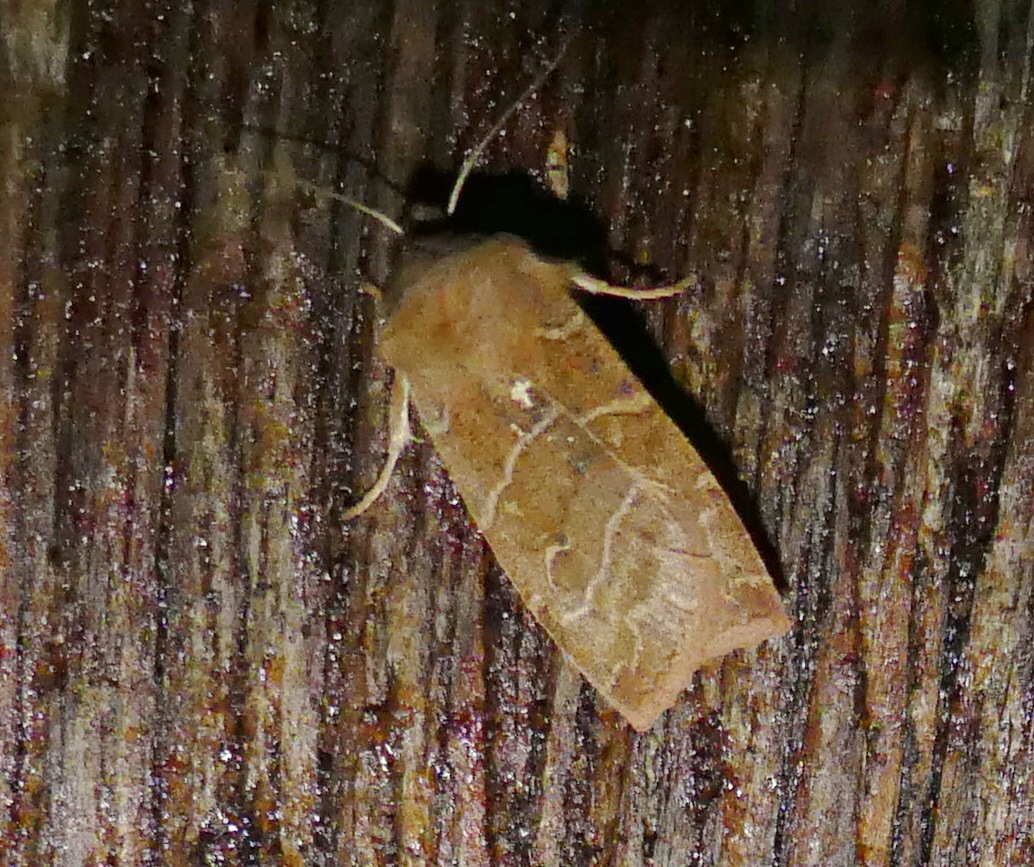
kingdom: Animalia
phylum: Arthropoda
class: Insecta
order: Lepidoptera
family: Noctuidae
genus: Eupsilia
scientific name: Eupsilia morrisoni
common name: Morrison's sallow
